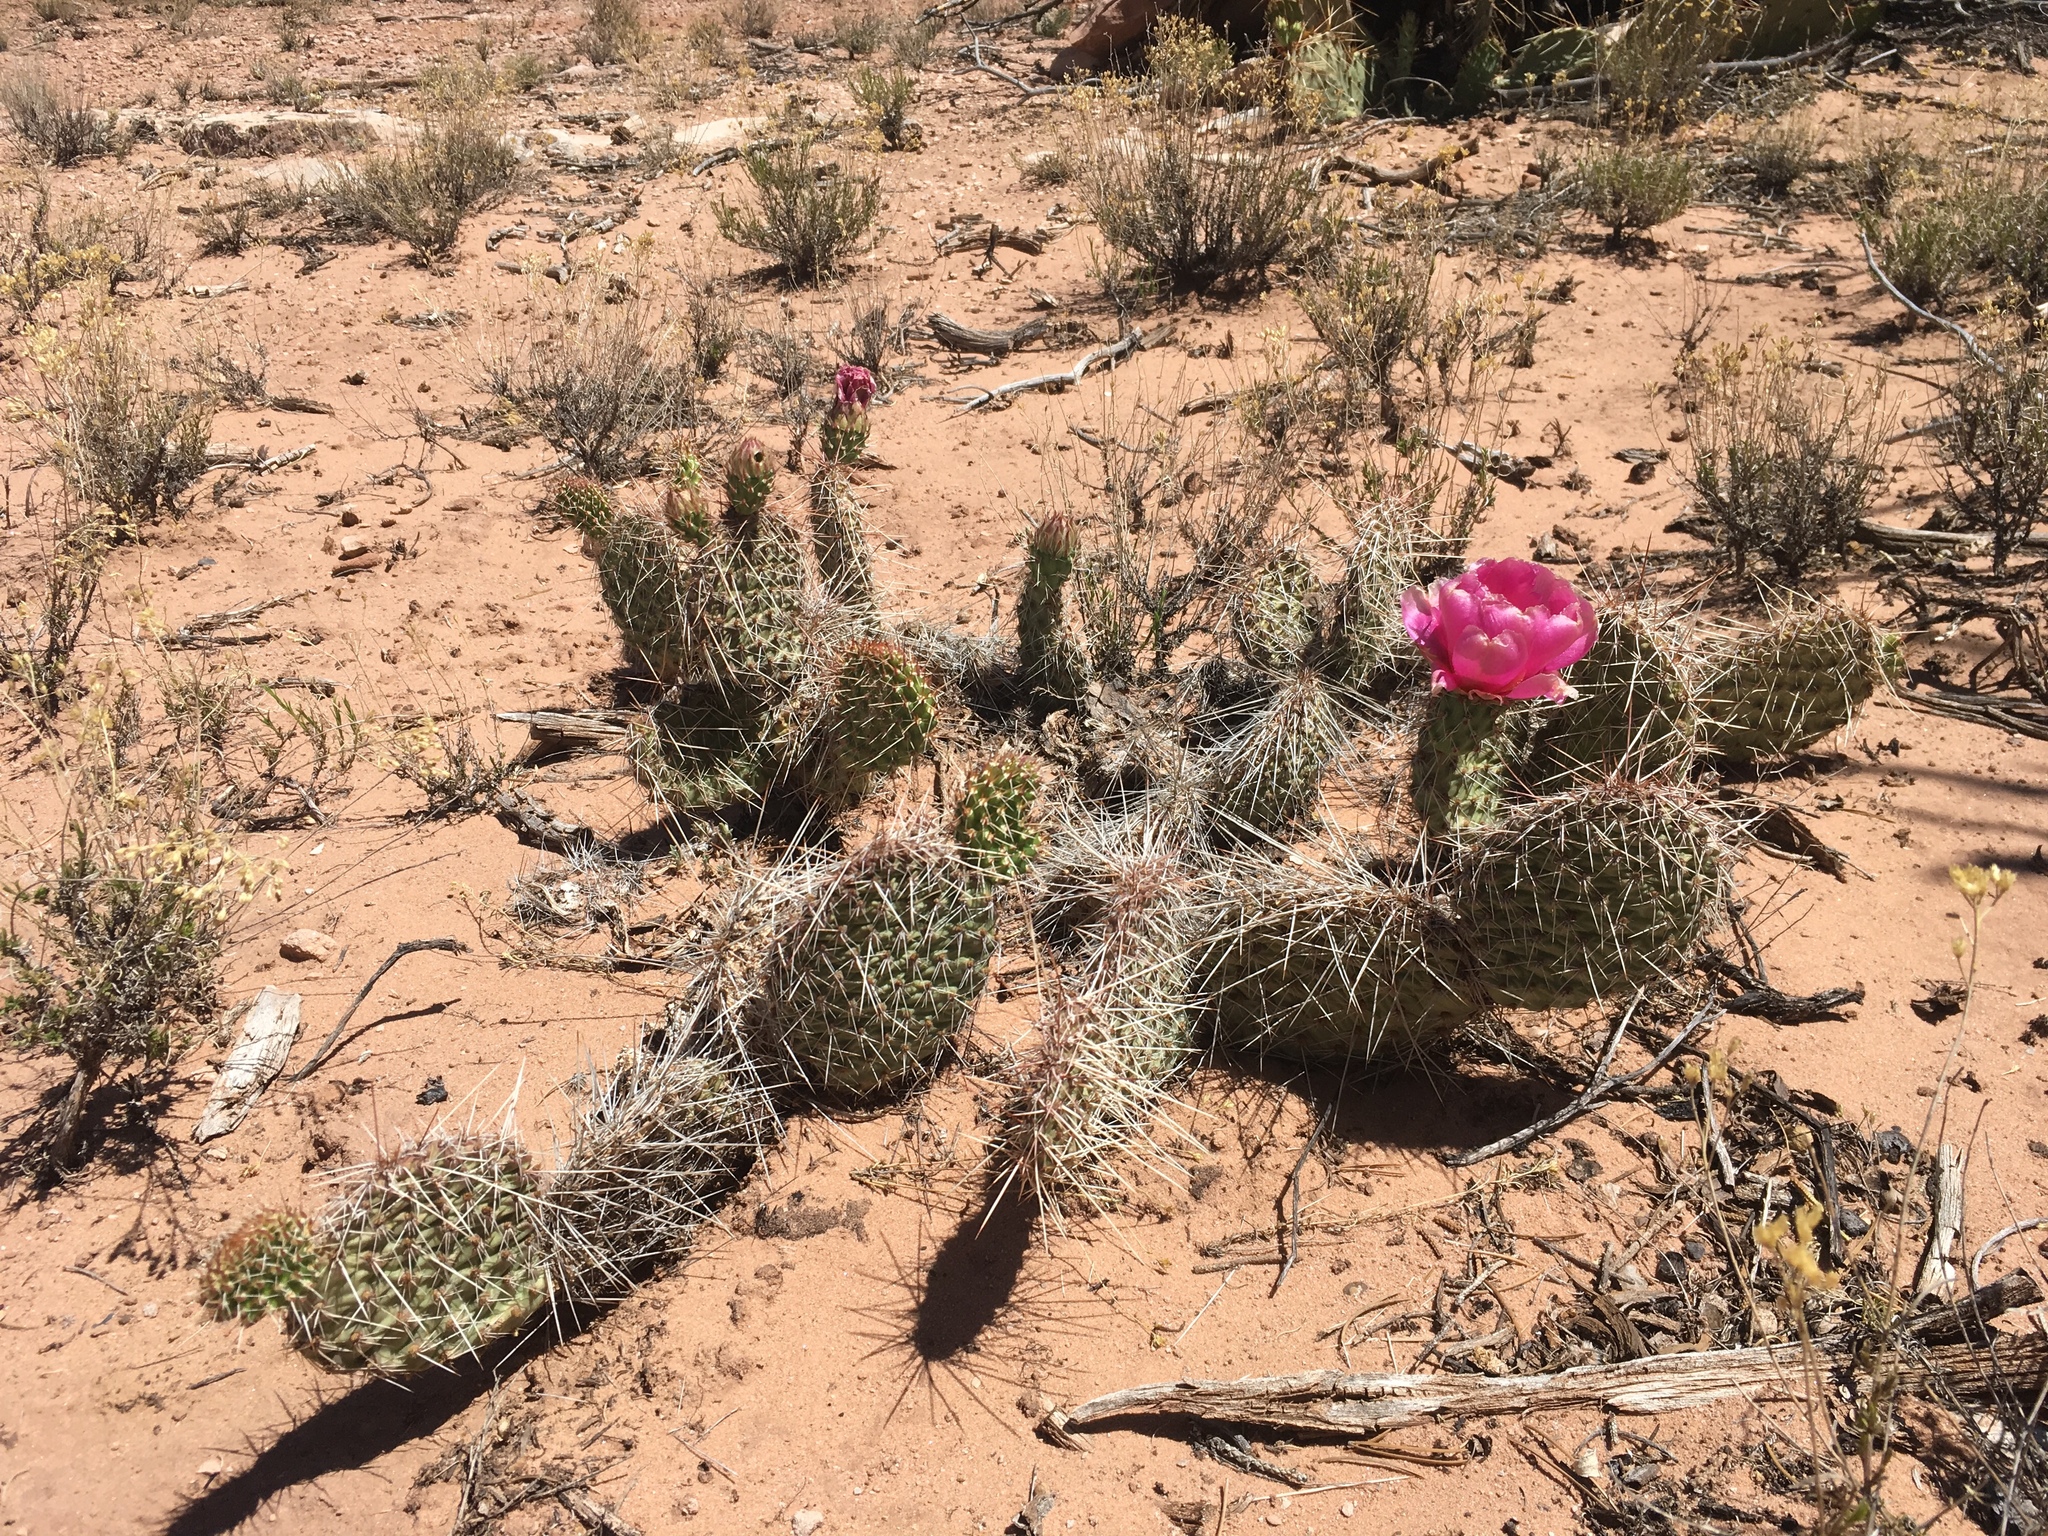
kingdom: Plantae
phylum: Tracheophyta
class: Magnoliopsida
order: Caryophyllales
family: Cactaceae
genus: Opuntia
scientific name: Opuntia polyacantha
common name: Plains prickly-pear
